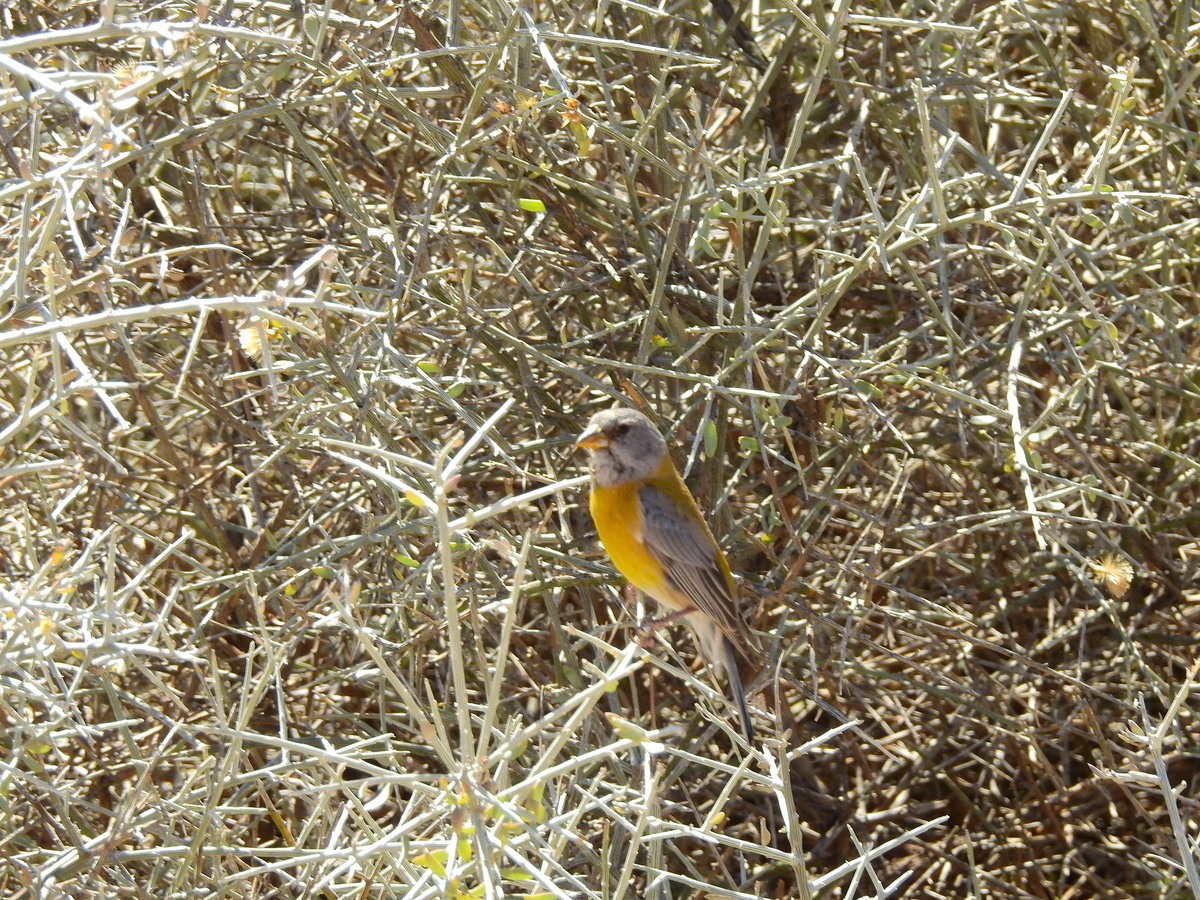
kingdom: Animalia
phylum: Chordata
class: Aves
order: Passeriformes
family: Thraupidae
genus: Phrygilus
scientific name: Phrygilus gayi
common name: Grey-hooded sierra finch
